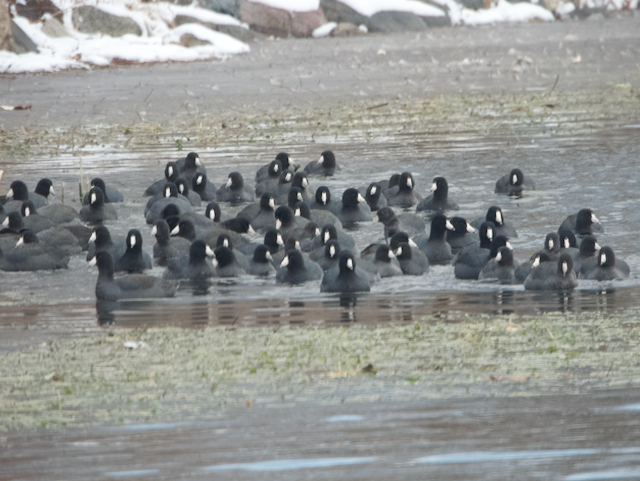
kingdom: Animalia
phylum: Chordata
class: Aves
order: Gruiformes
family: Rallidae
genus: Fulica
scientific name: Fulica americana
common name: American coot
